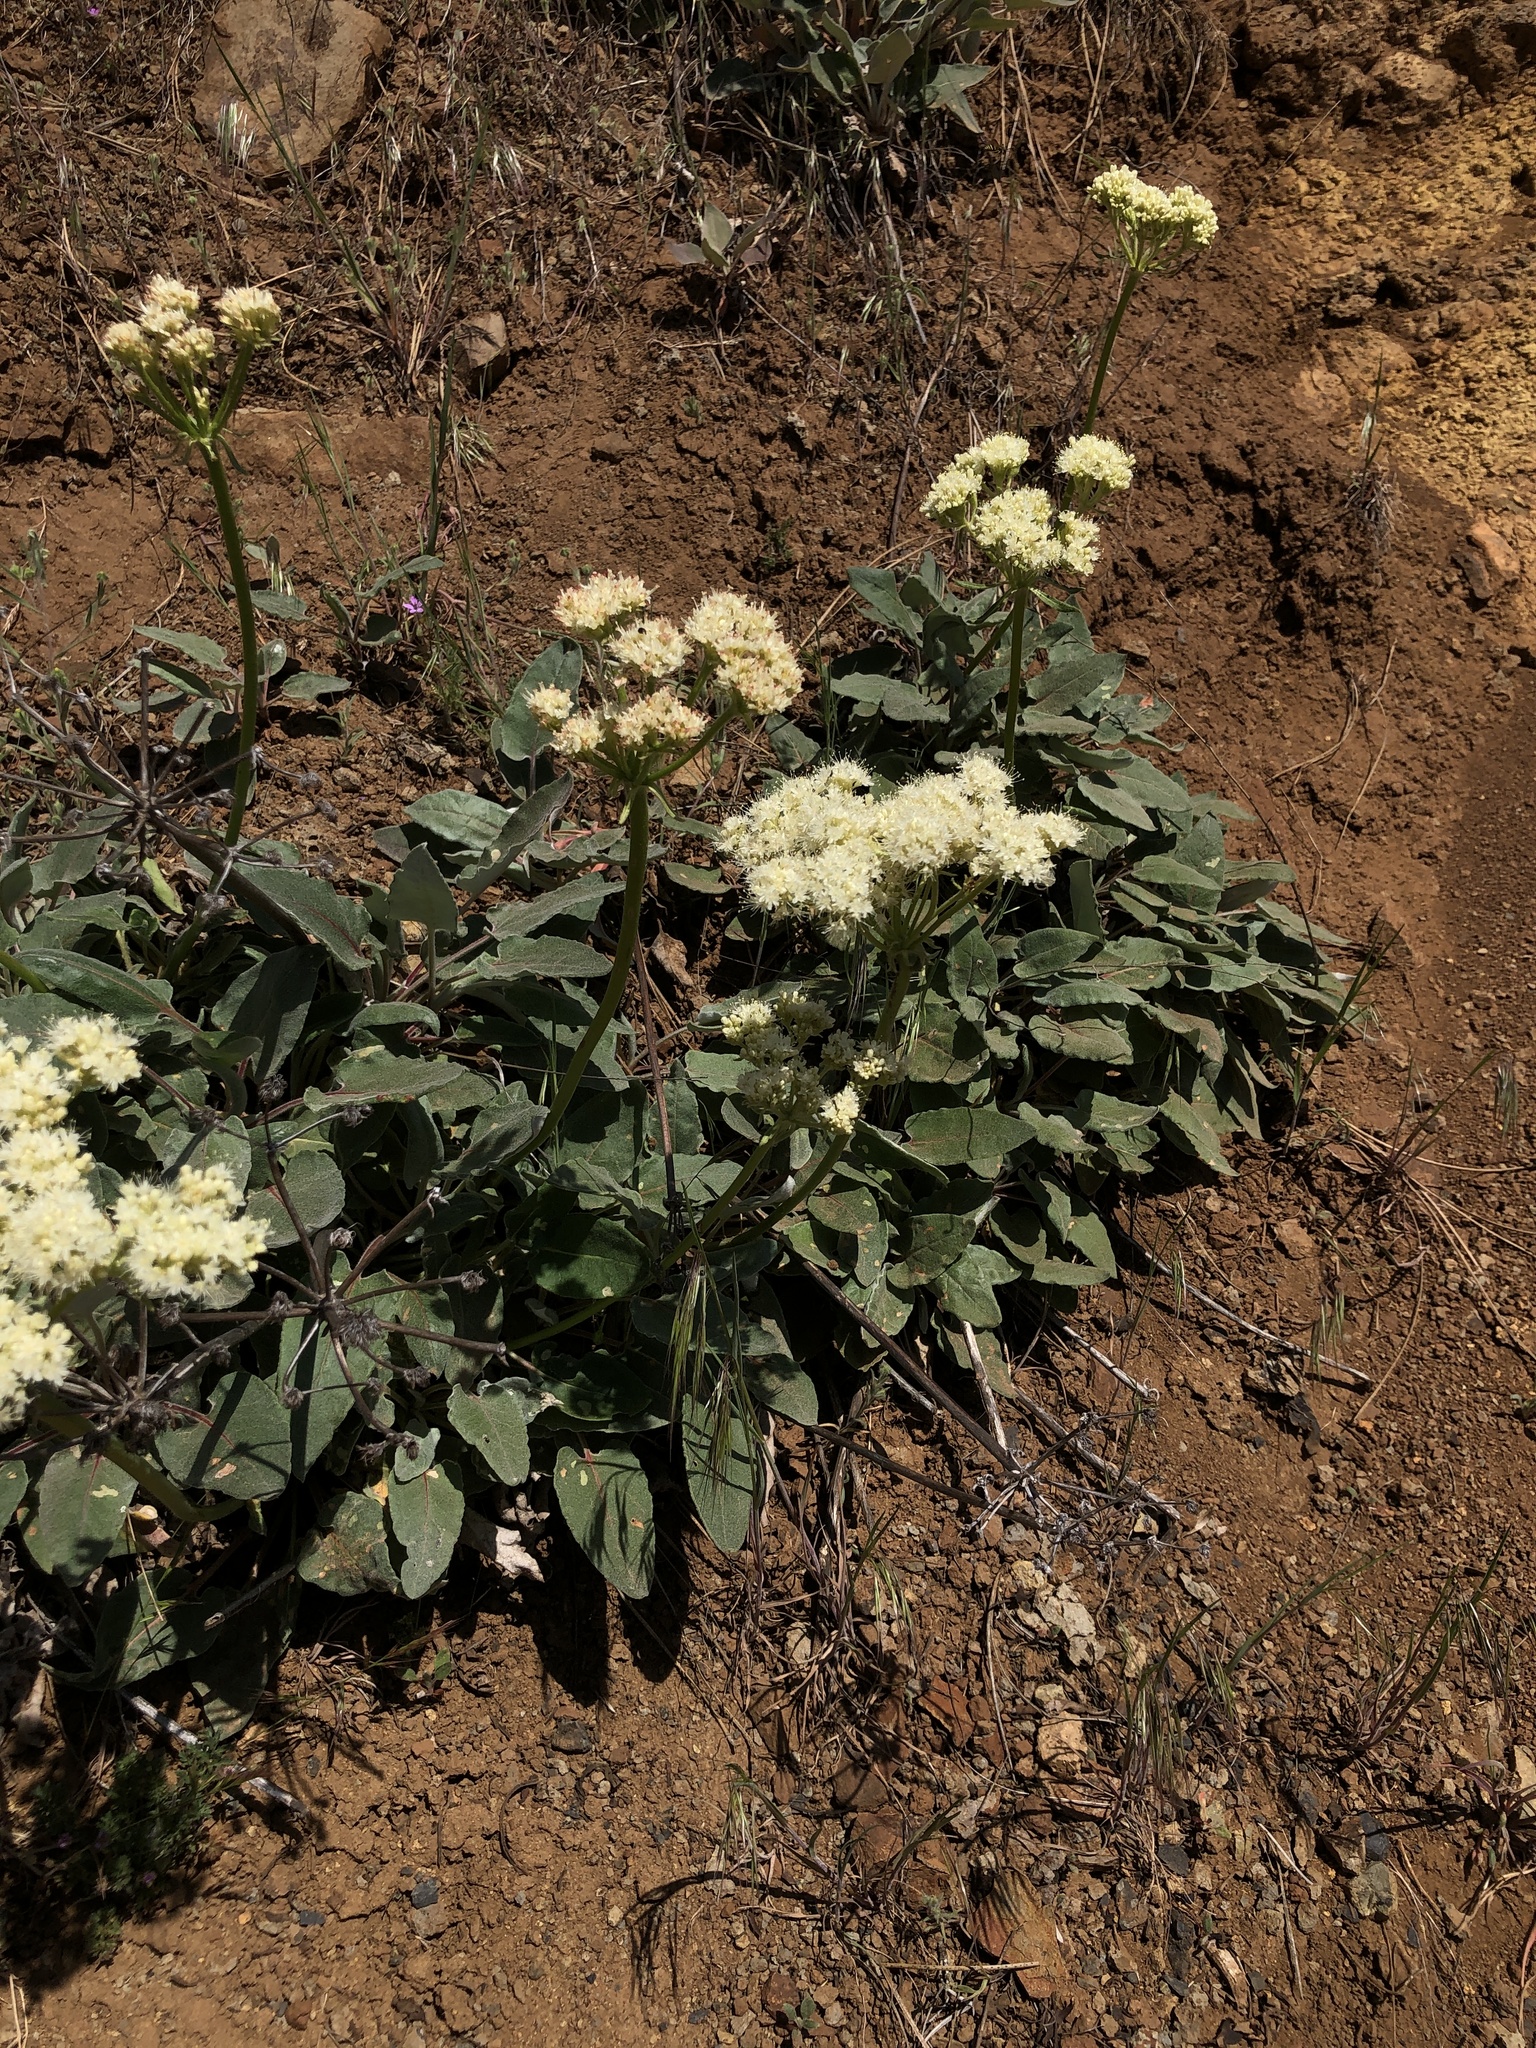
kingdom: Plantae
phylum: Tracheophyta
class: Magnoliopsida
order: Caryophyllales
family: Polygonaceae
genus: Eriogonum
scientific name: Eriogonum compositum
